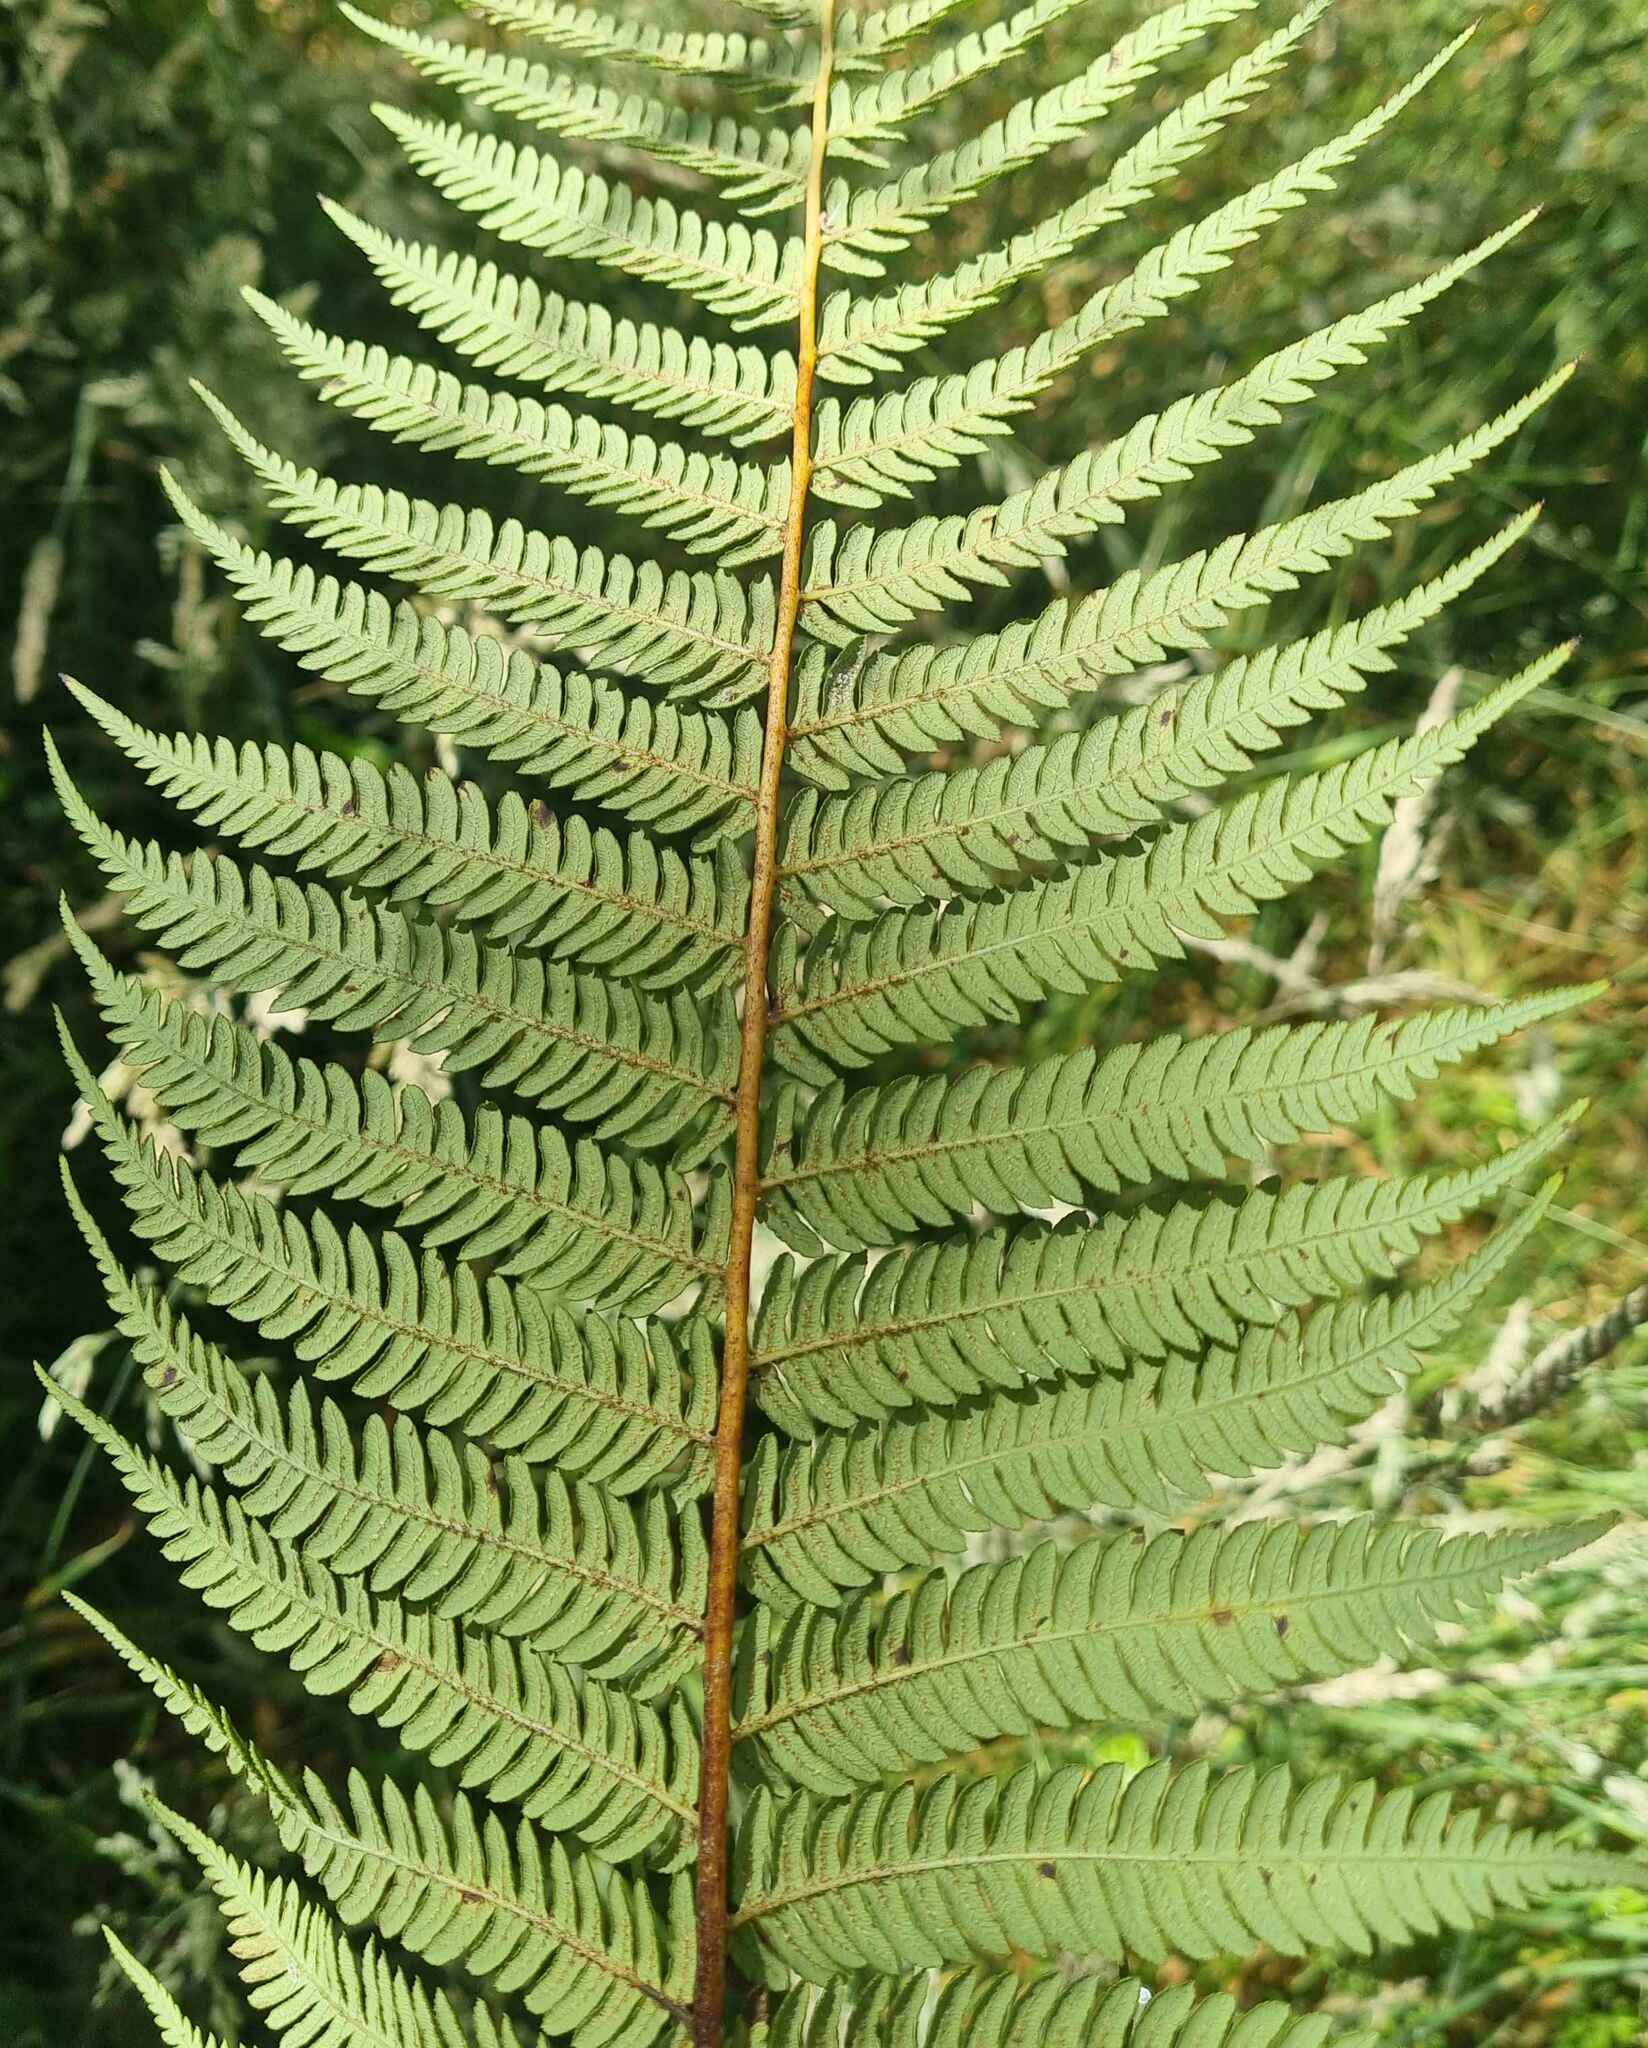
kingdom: Plantae
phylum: Tracheophyta
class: Polypodiopsida
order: Cyatheales
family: Cyatheaceae
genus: Sphaeropteris
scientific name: Sphaeropteris medullaris
